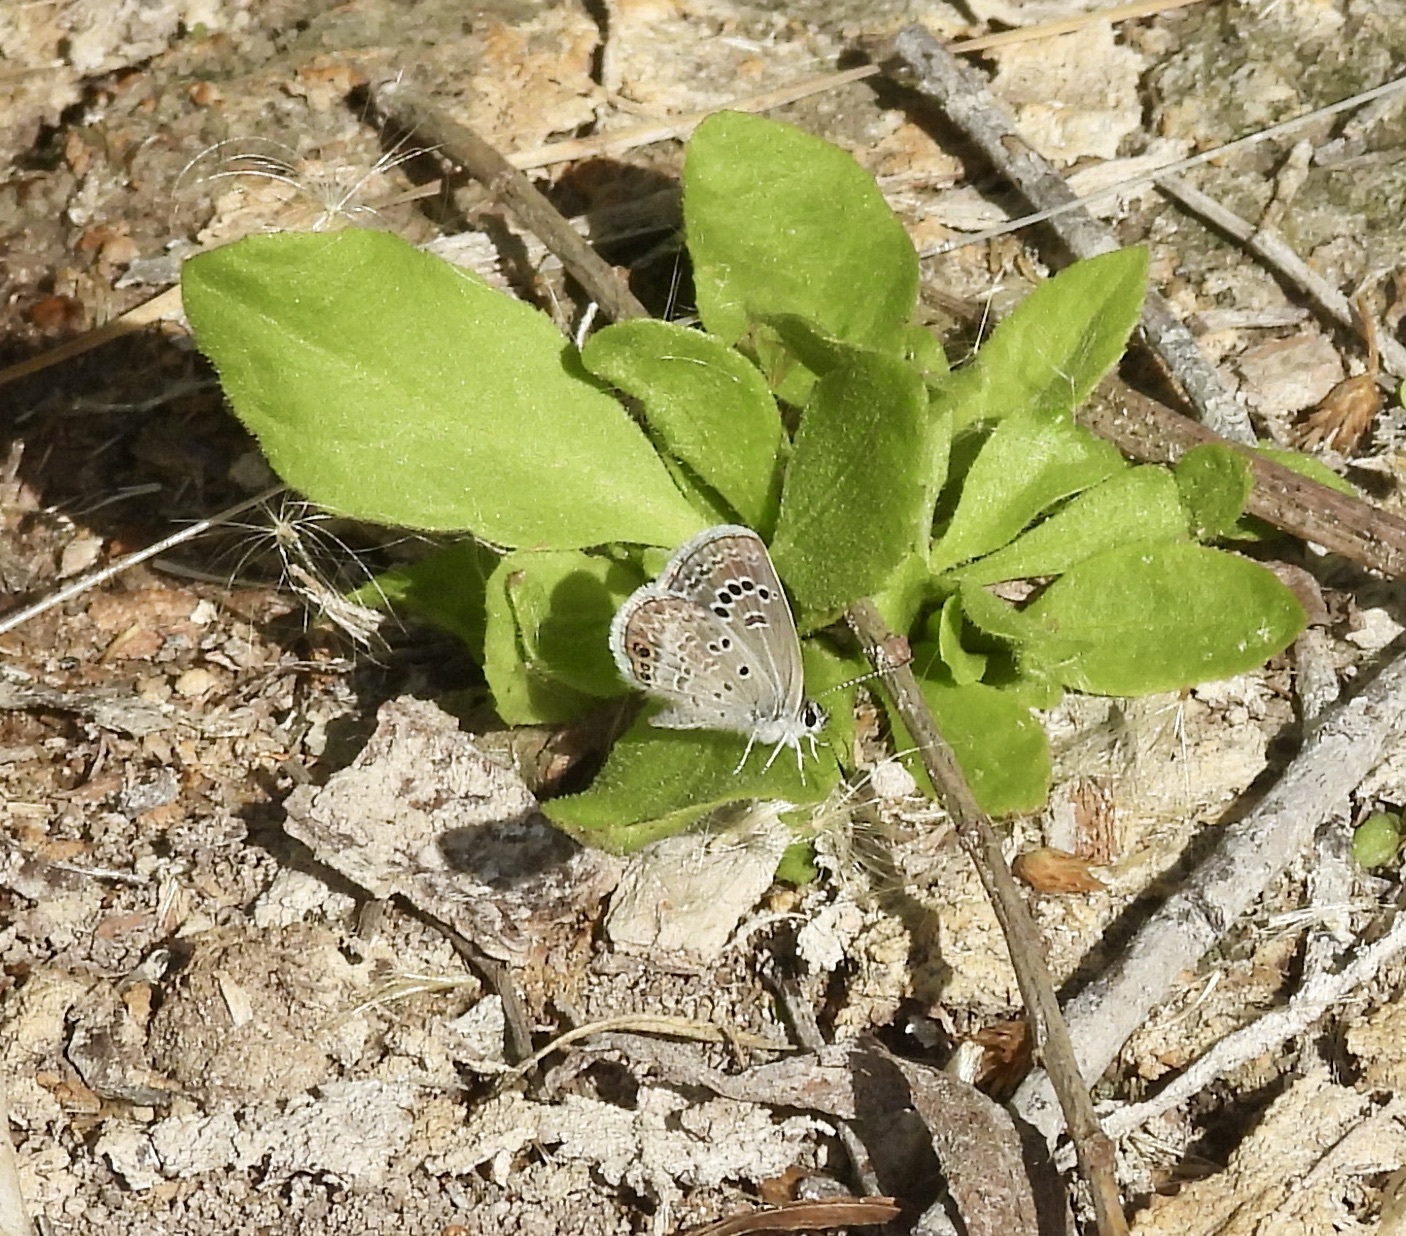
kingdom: Animalia
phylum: Arthropoda
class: Insecta
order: Lepidoptera
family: Lycaenidae
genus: Echinargus
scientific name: Echinargus isola
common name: Reakirt's blue
